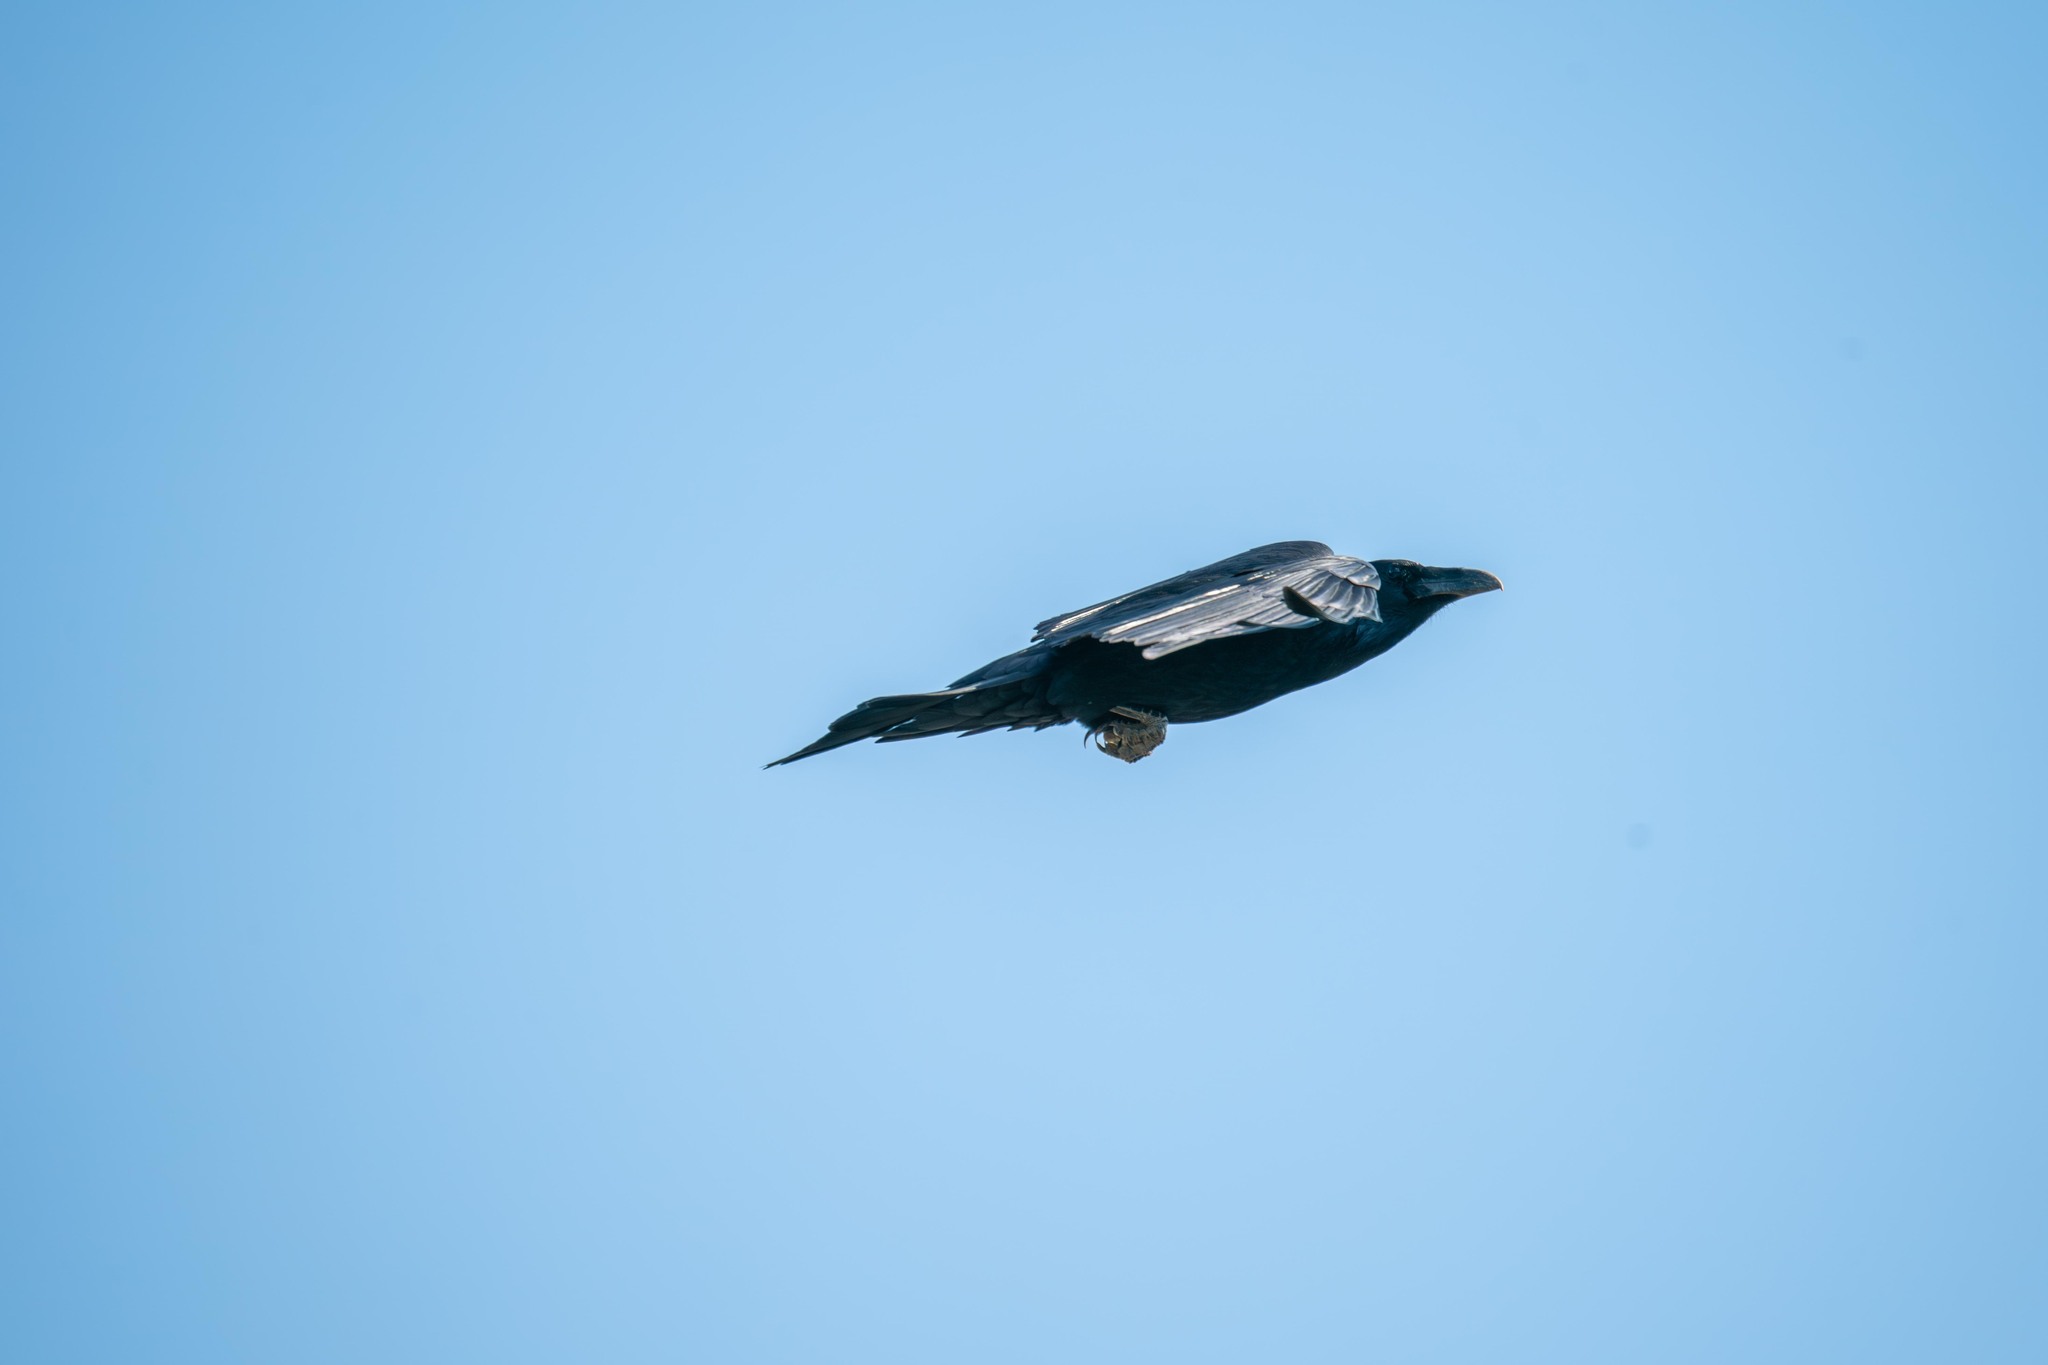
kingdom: Animalia
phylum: Chordata
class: Aves
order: Passeriformes
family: Corvidae
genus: Corvus
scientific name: Corvus corax
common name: Common raven
